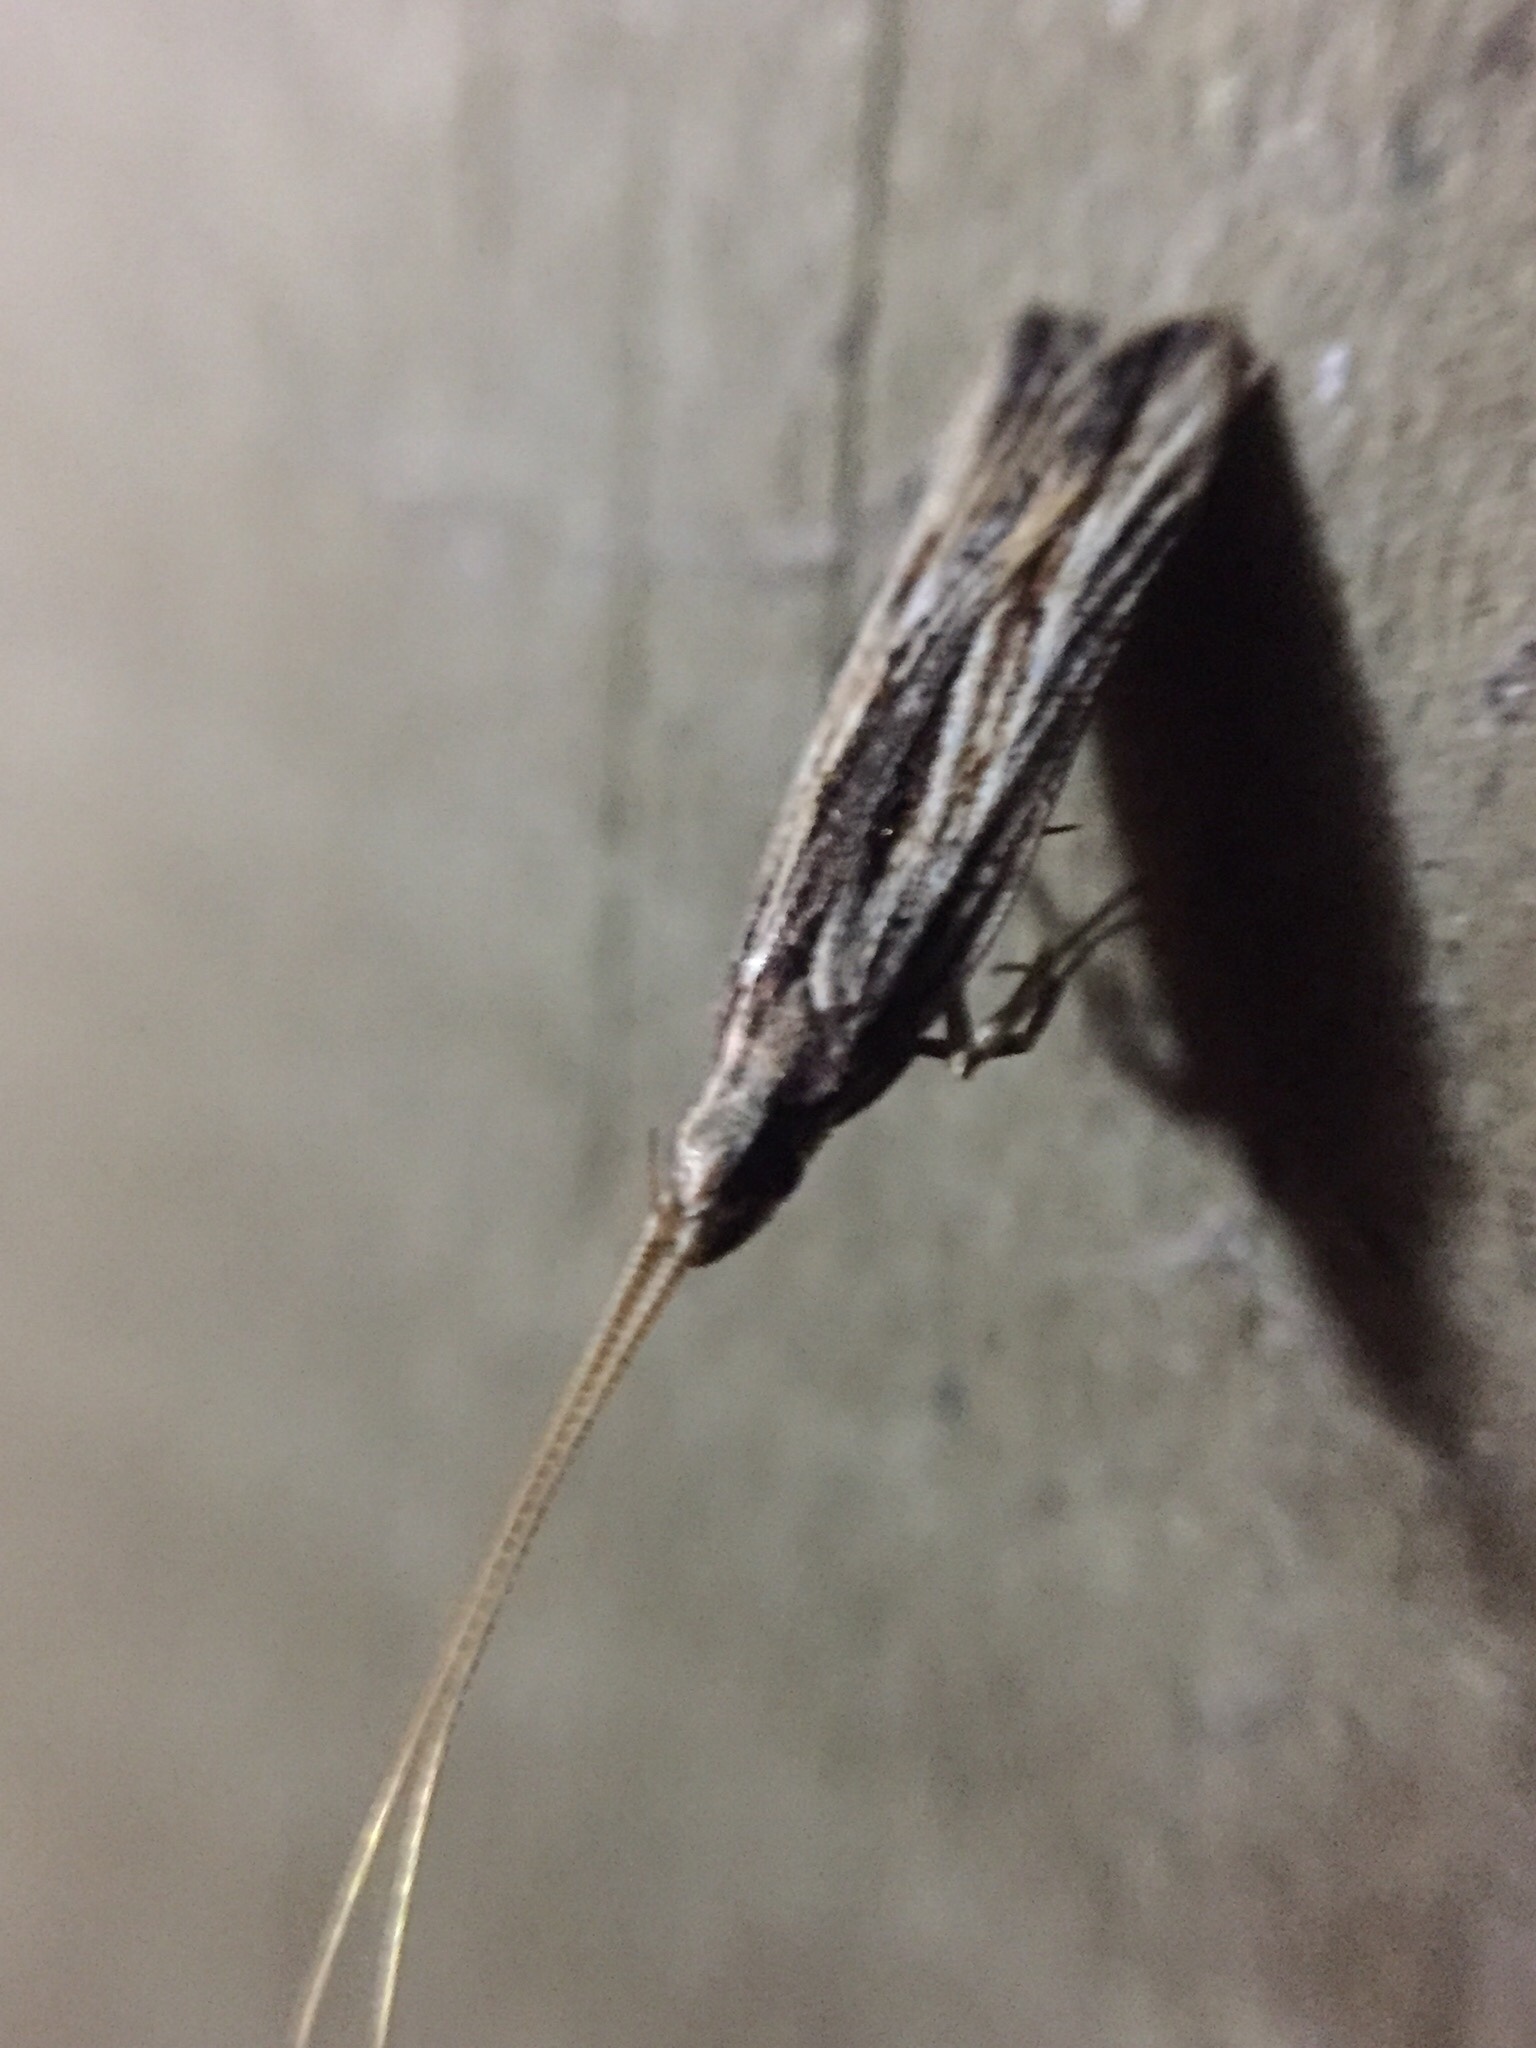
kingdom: Animalia
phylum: Arthropoda
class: Insecta
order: Lepidoptera
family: Lecithoceridae
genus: Sarisophora
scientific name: Sarisophora leucoscia
